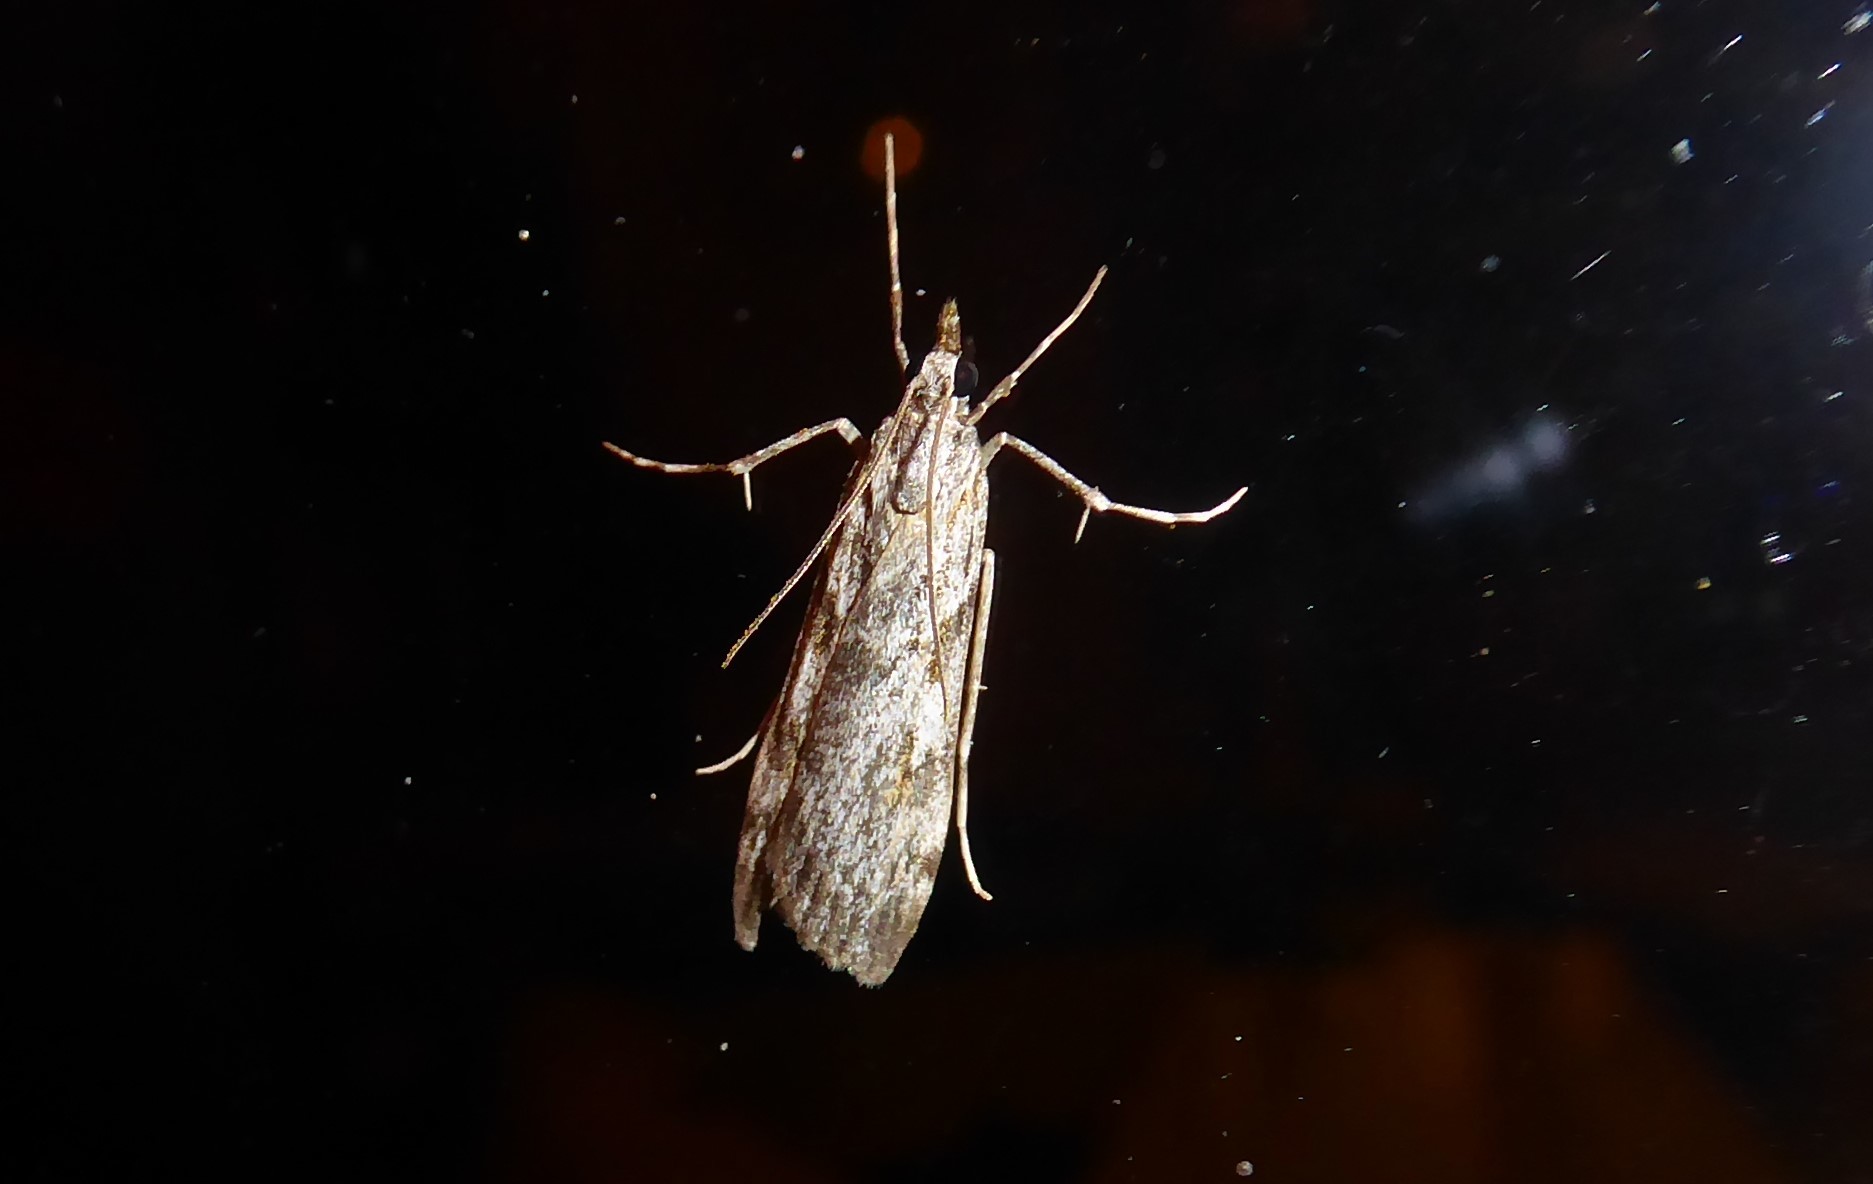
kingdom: Animalia
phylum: Arthropoda
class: Insecta
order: Lepidoptera
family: Crambidae
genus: Scoparia
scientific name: Scoparia halopis
